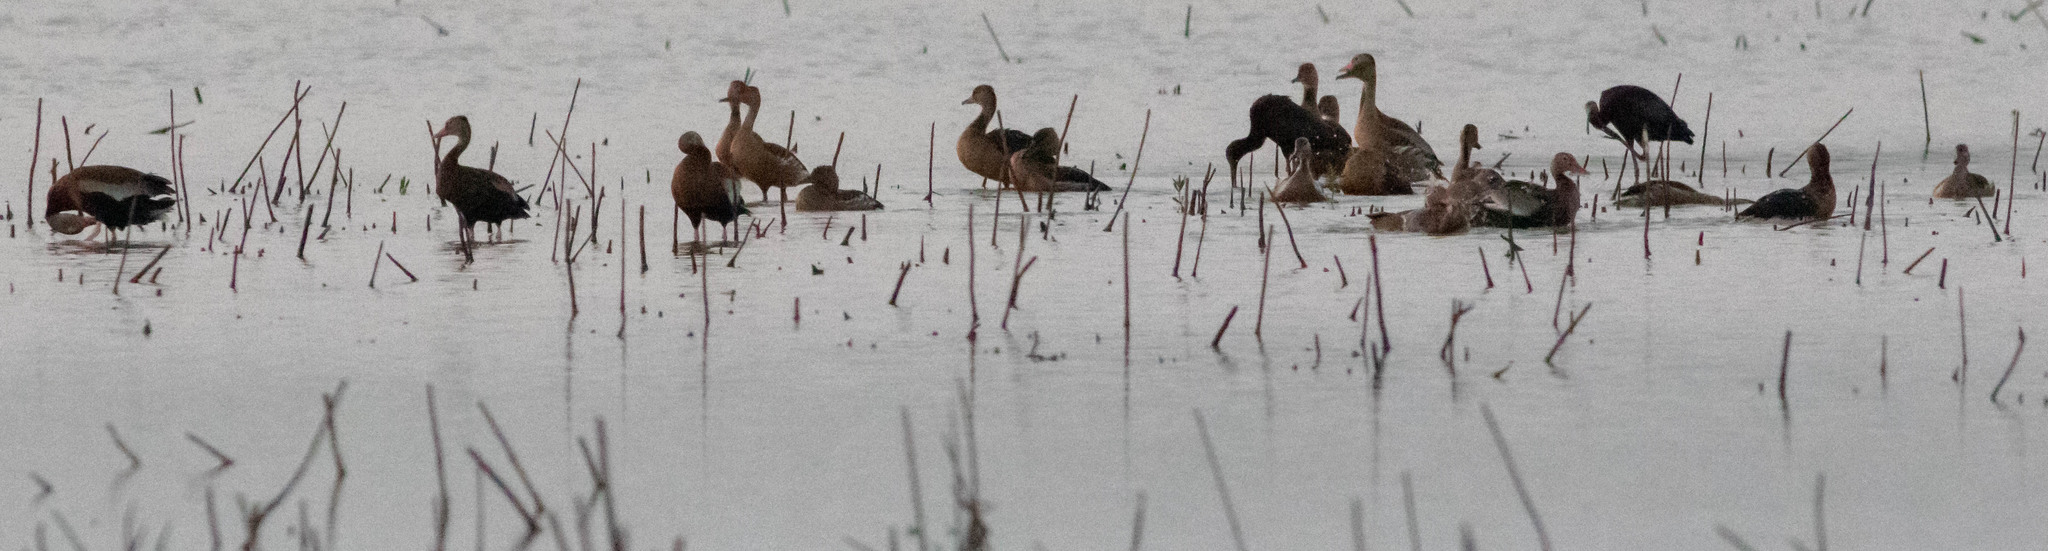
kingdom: Animalia
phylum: Chordata
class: Aves
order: Anseriformes
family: Anatidae
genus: Dendrocygna
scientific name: Dendrocygna bicolor
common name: Fulvous whistling duck
